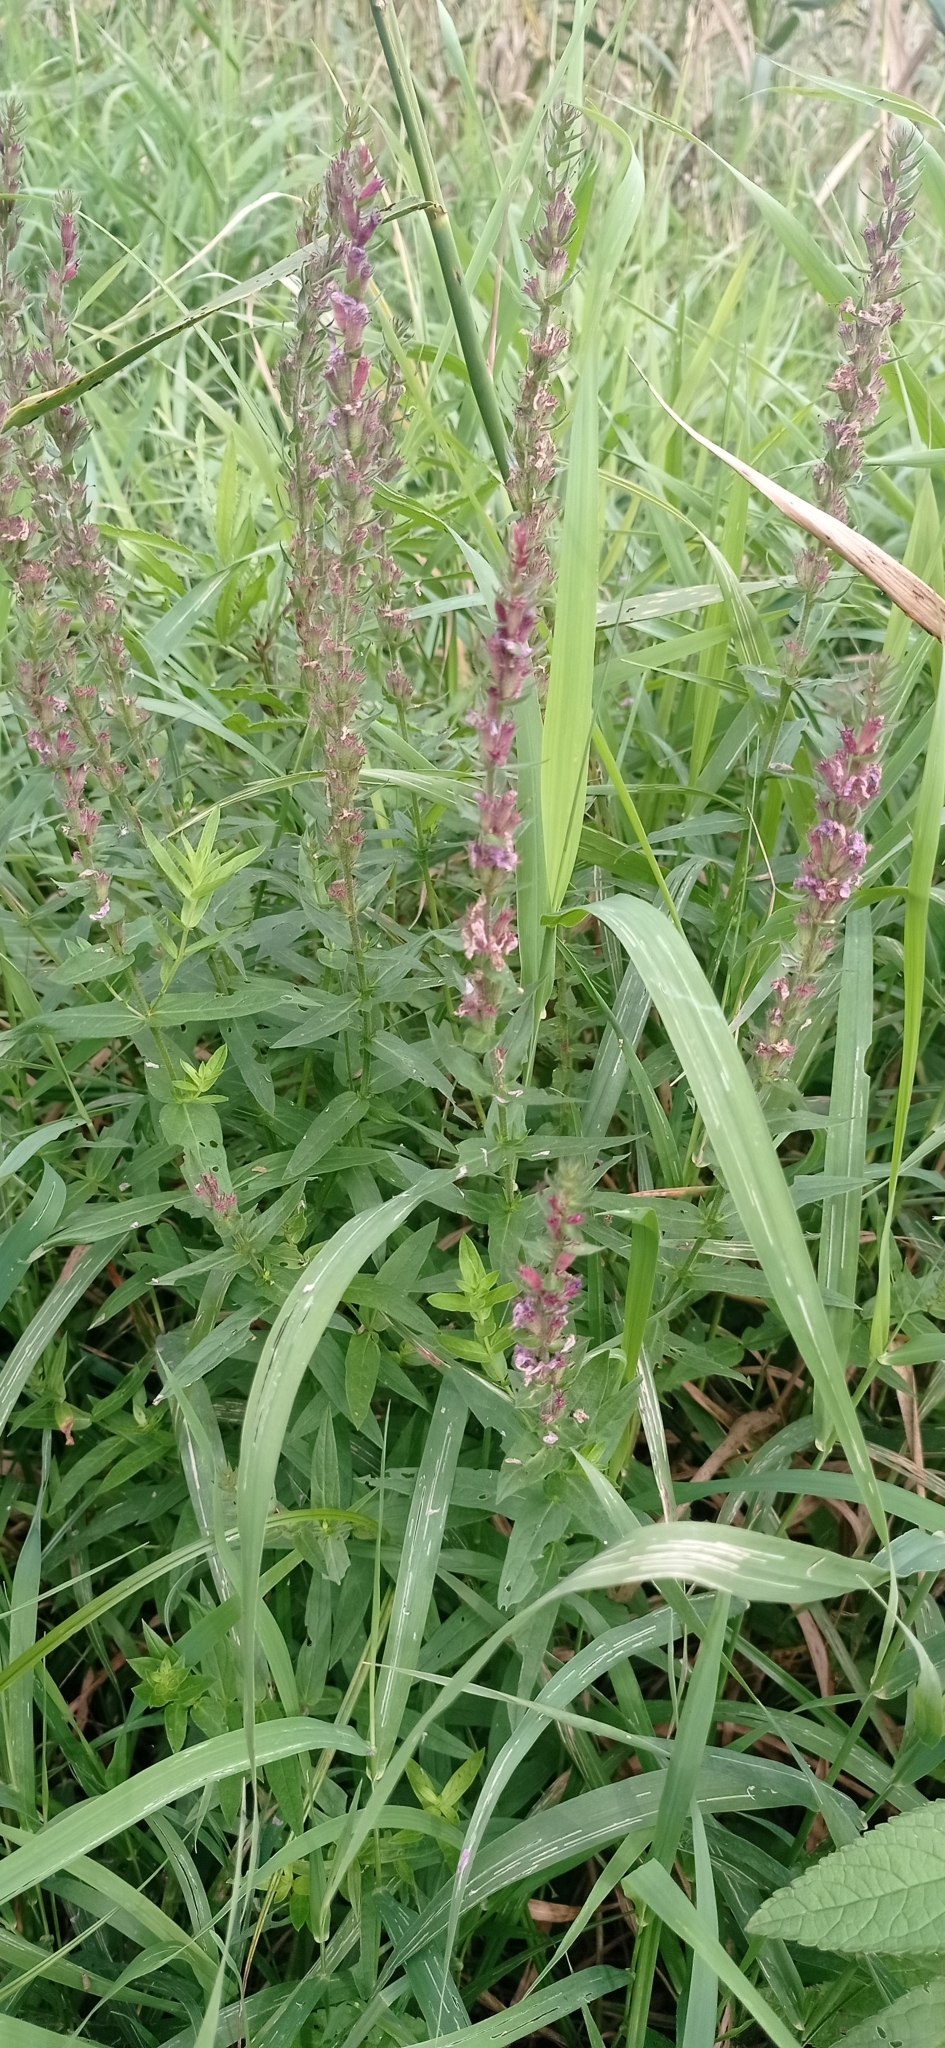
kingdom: Plantae
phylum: Tracheophyta
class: Magnoliopsida
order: Lamiales
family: Lamiaceae
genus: Stachys
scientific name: Stachys palustris
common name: Marsh woundwort
